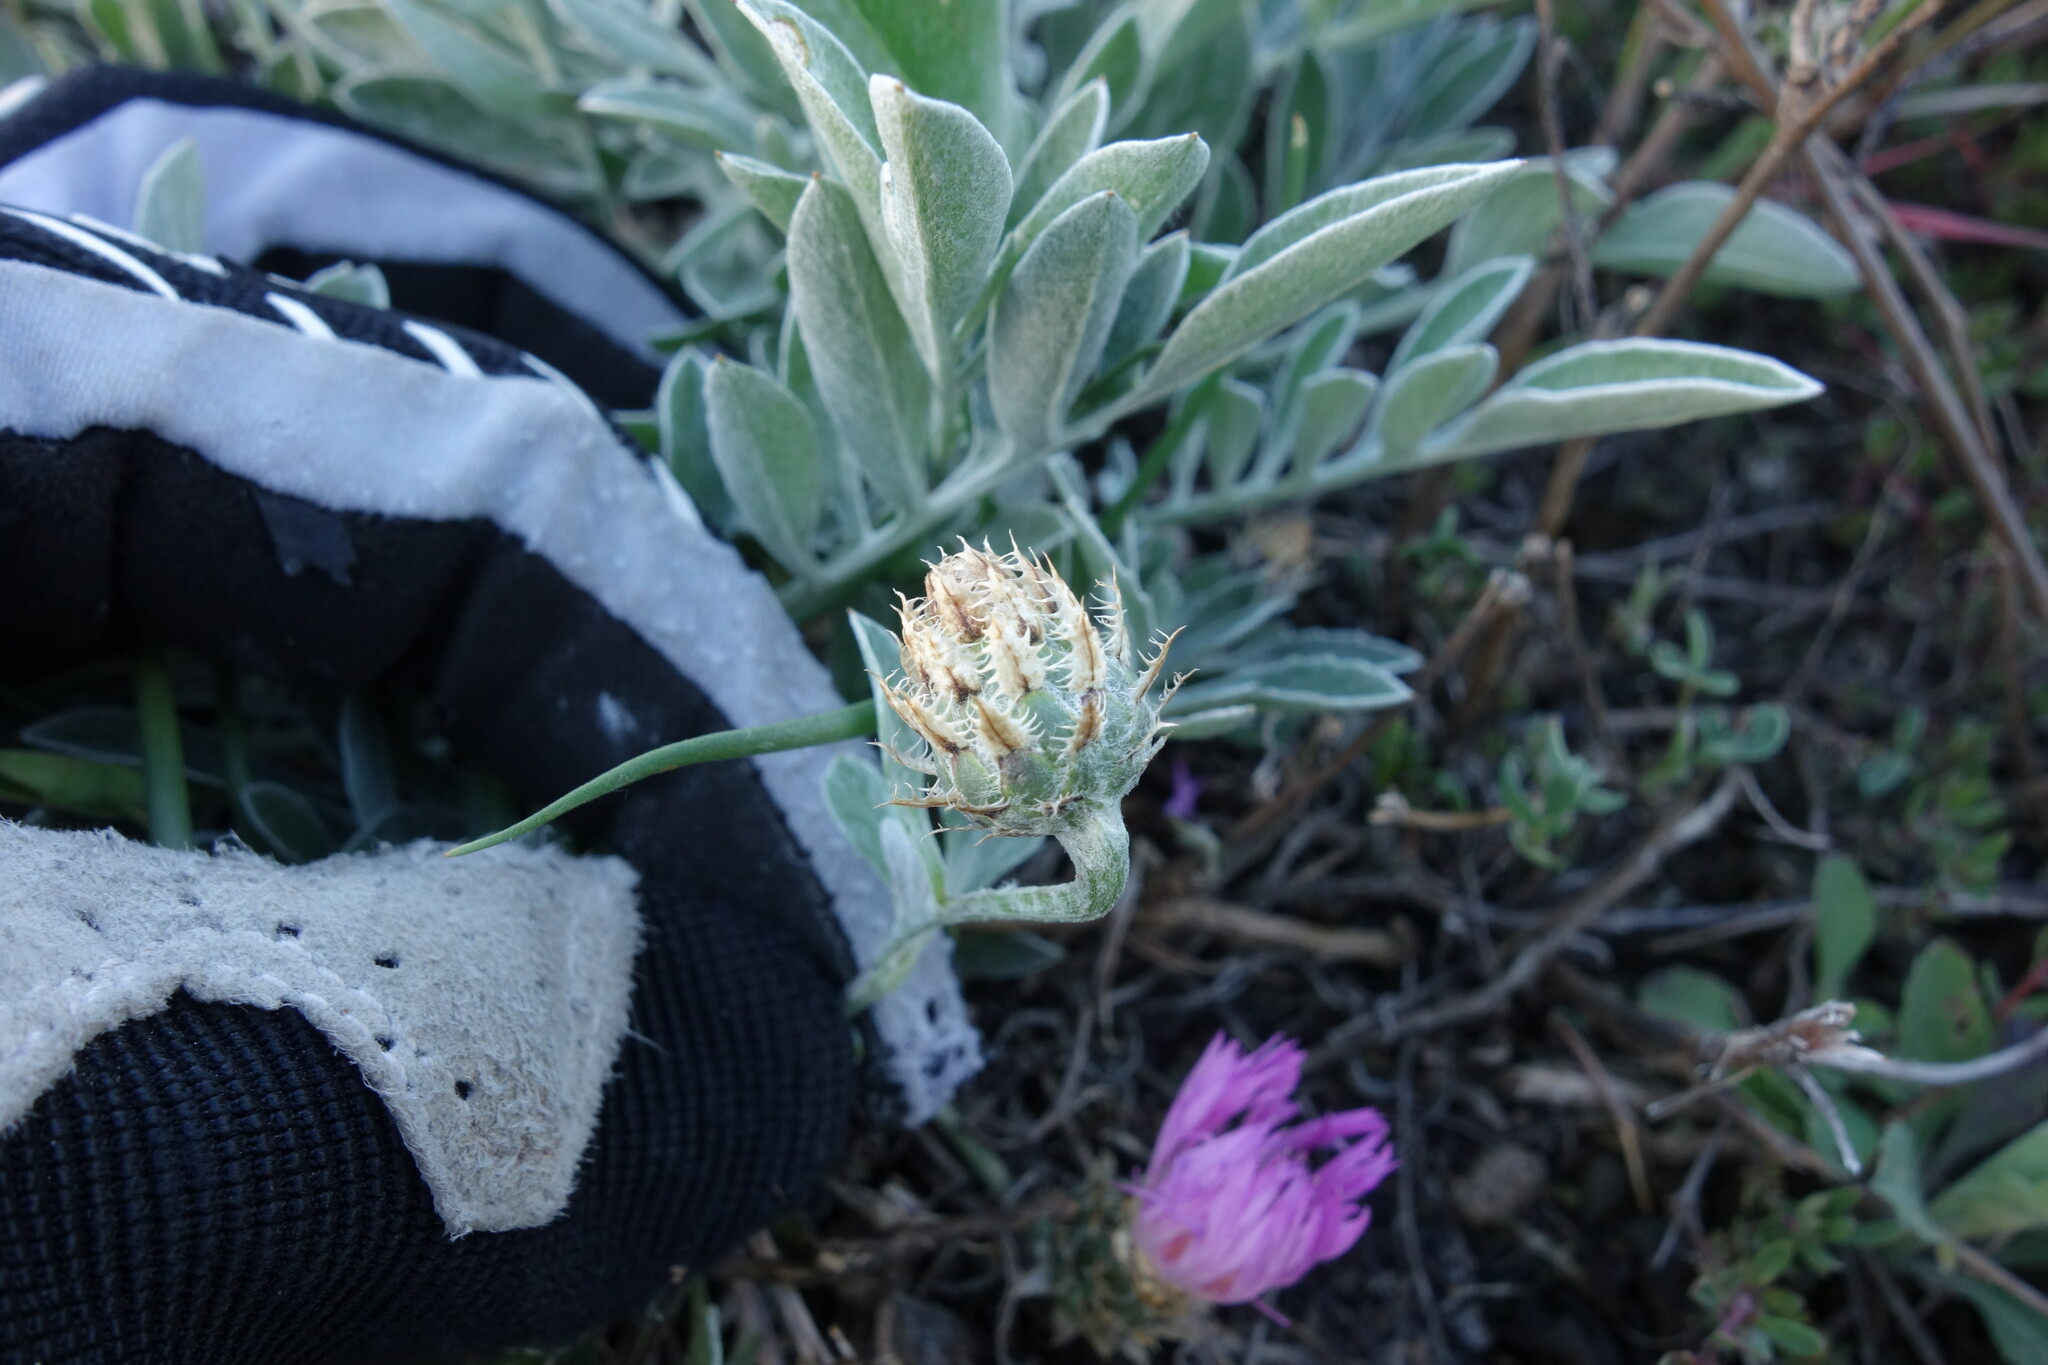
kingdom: Plantae
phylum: Tracheophyta
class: Magnoliopsida
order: Asterales
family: Asteraceae
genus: Psephellus
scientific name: Psephellus marschallianus
